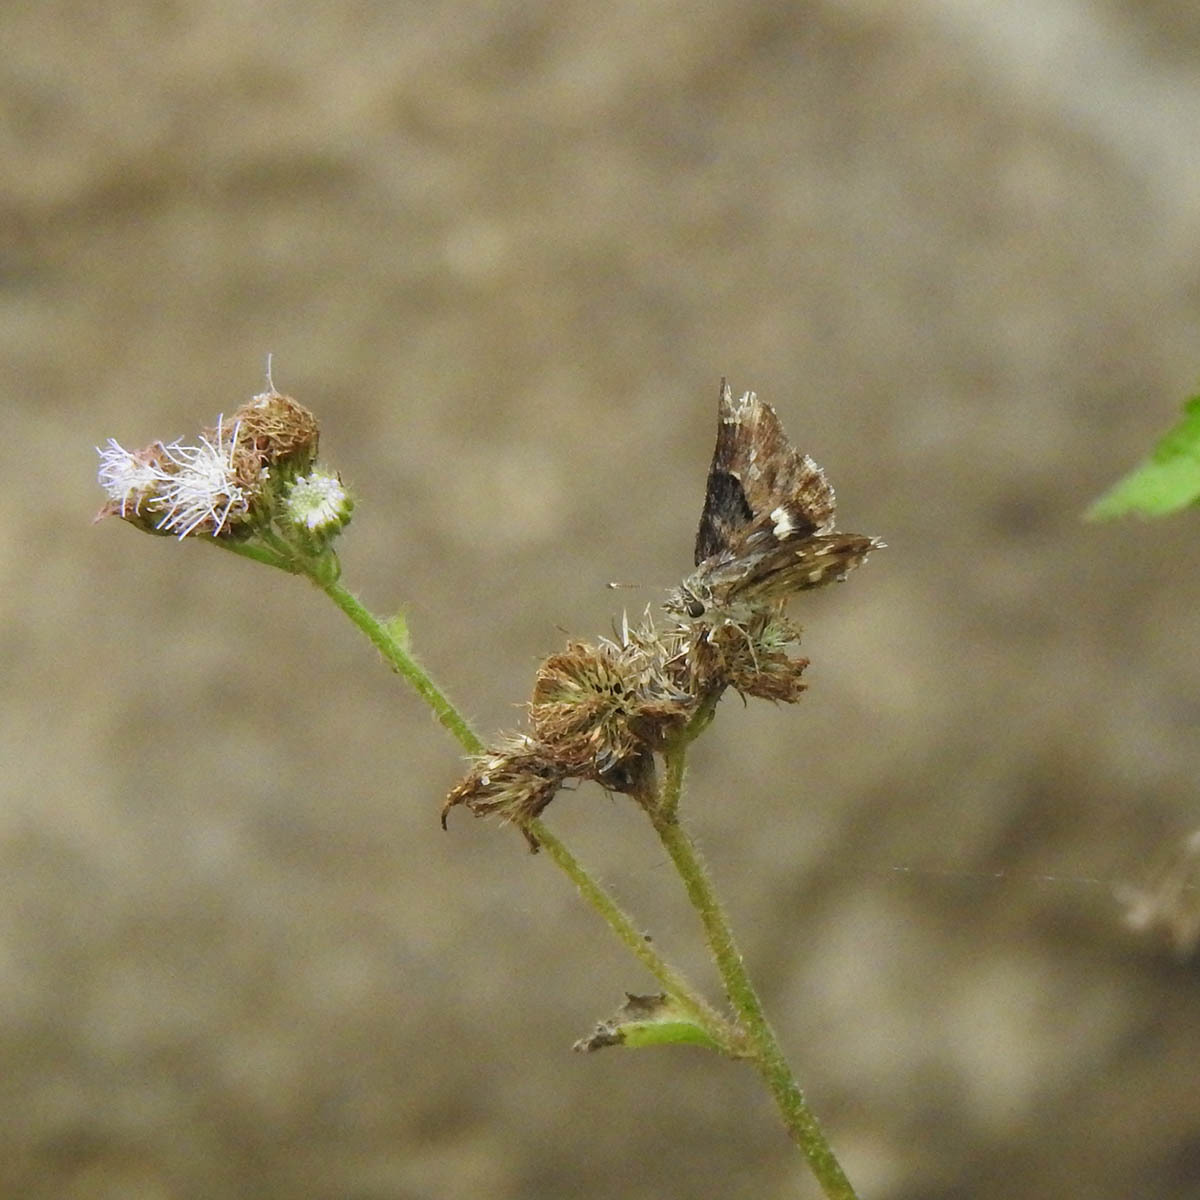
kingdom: Animalia
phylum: Arthropoda
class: Insecta
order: Lepidoptera
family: Hesperiidae
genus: Gomalia
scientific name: Gomalia elma
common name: Green-marbled skipper
